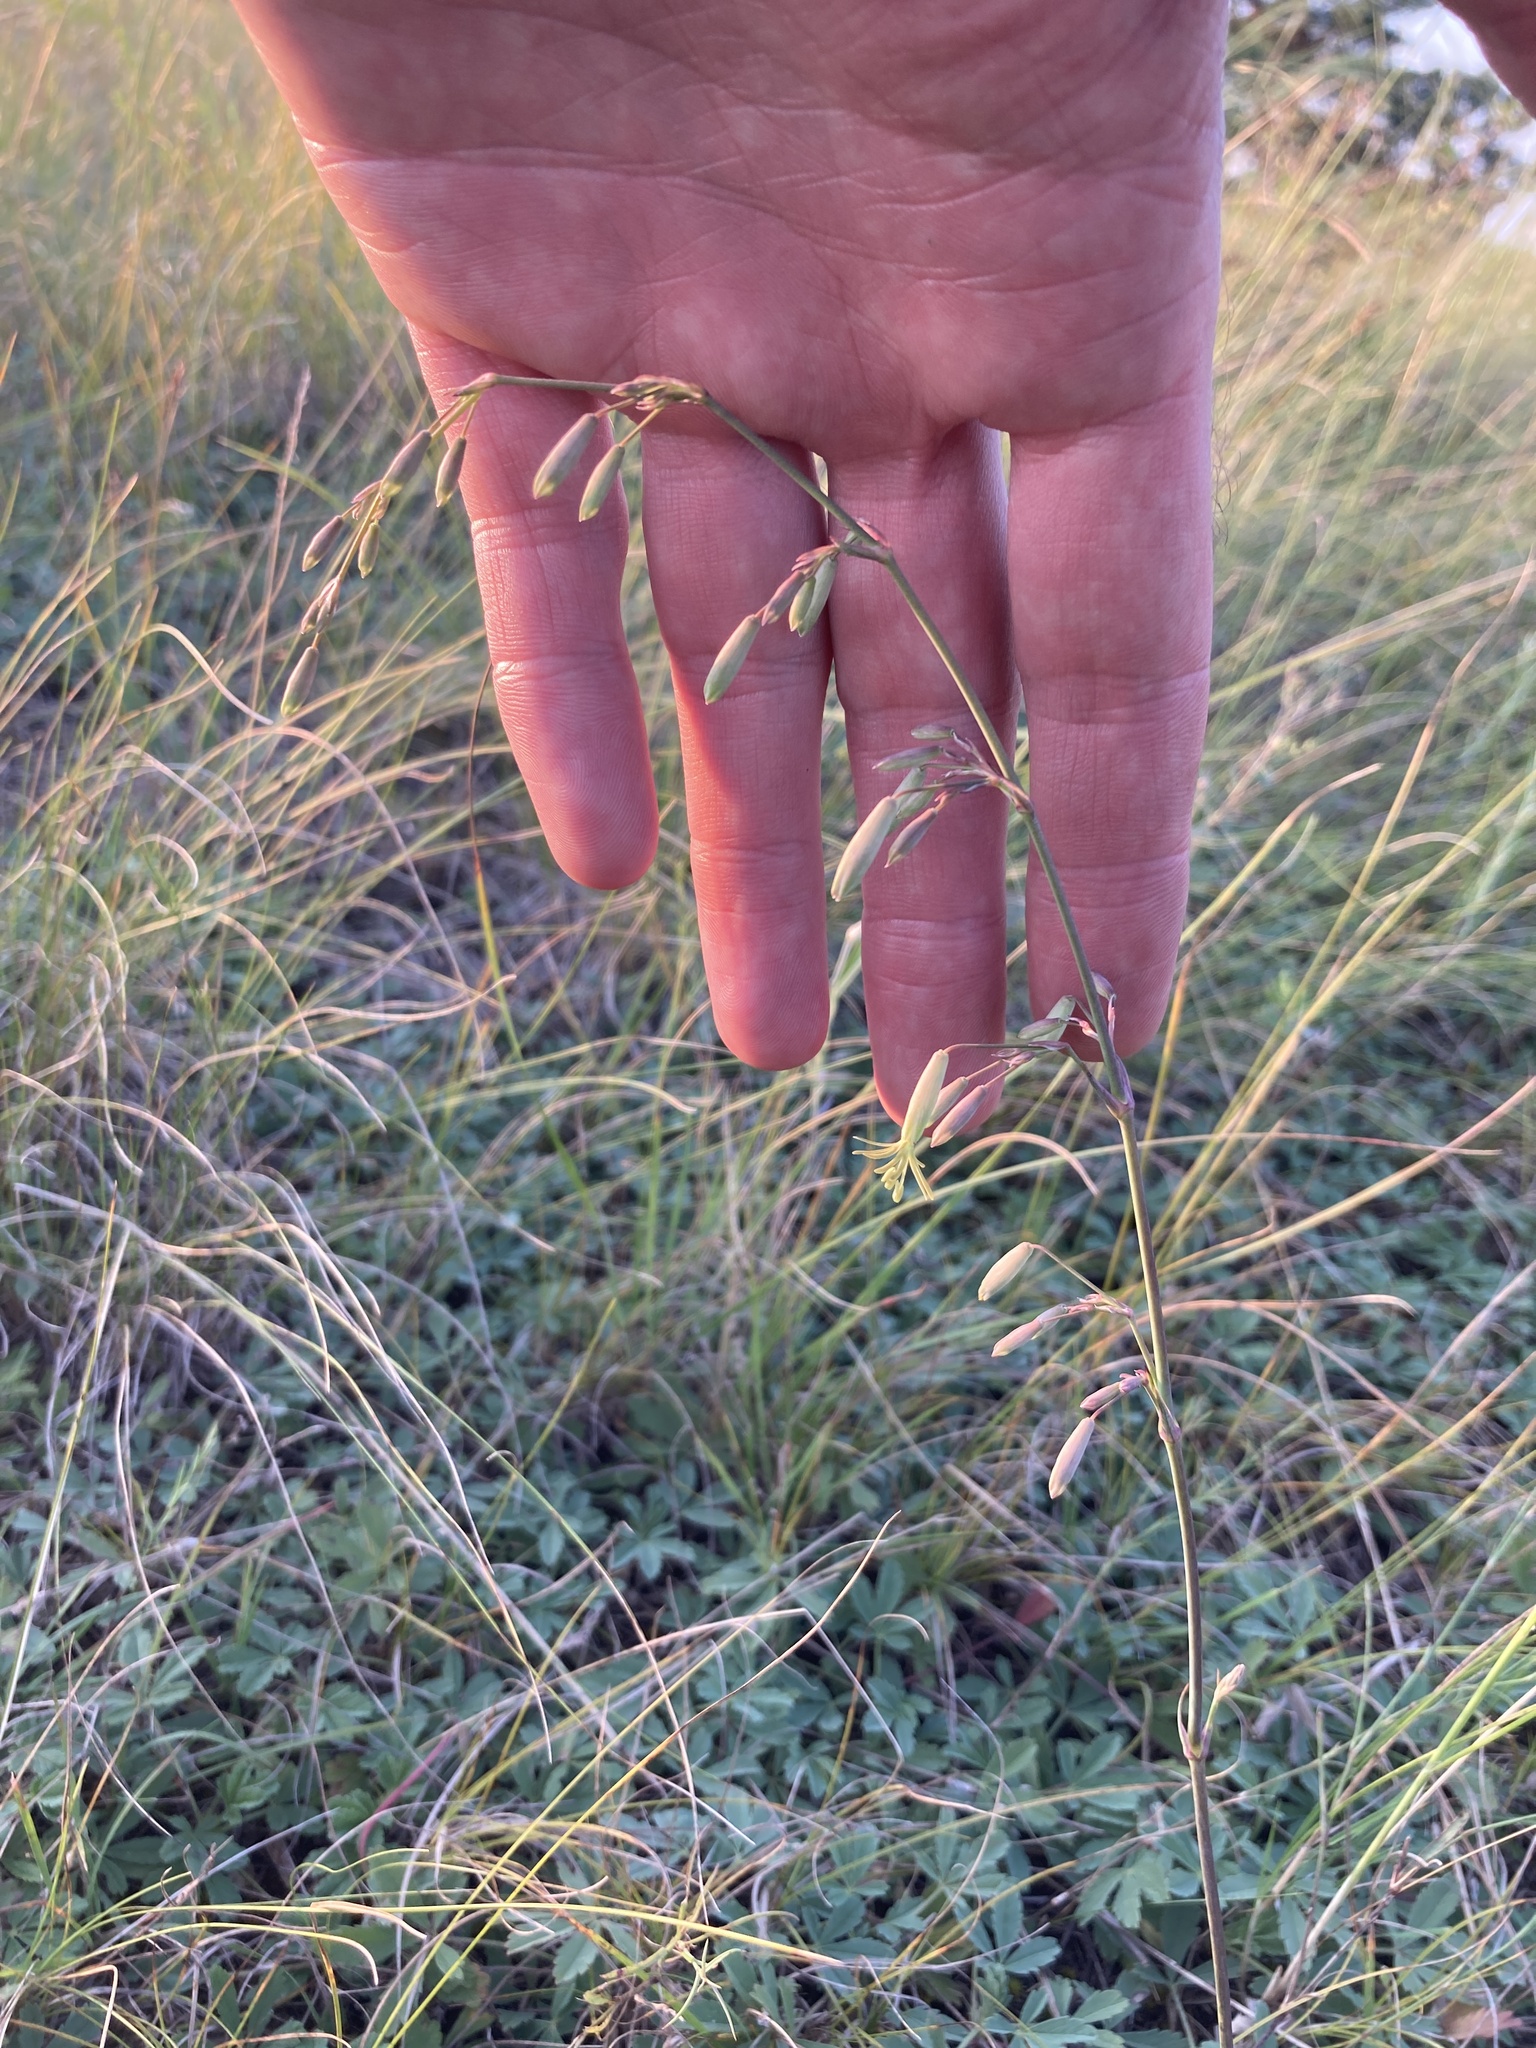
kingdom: Plantae
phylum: Tracheophyta
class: Magnoliopsida
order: Caryophyllales
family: Caryophyllaceae
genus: Silene
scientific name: Silene chlorantha
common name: Yellowgreen catchfly
